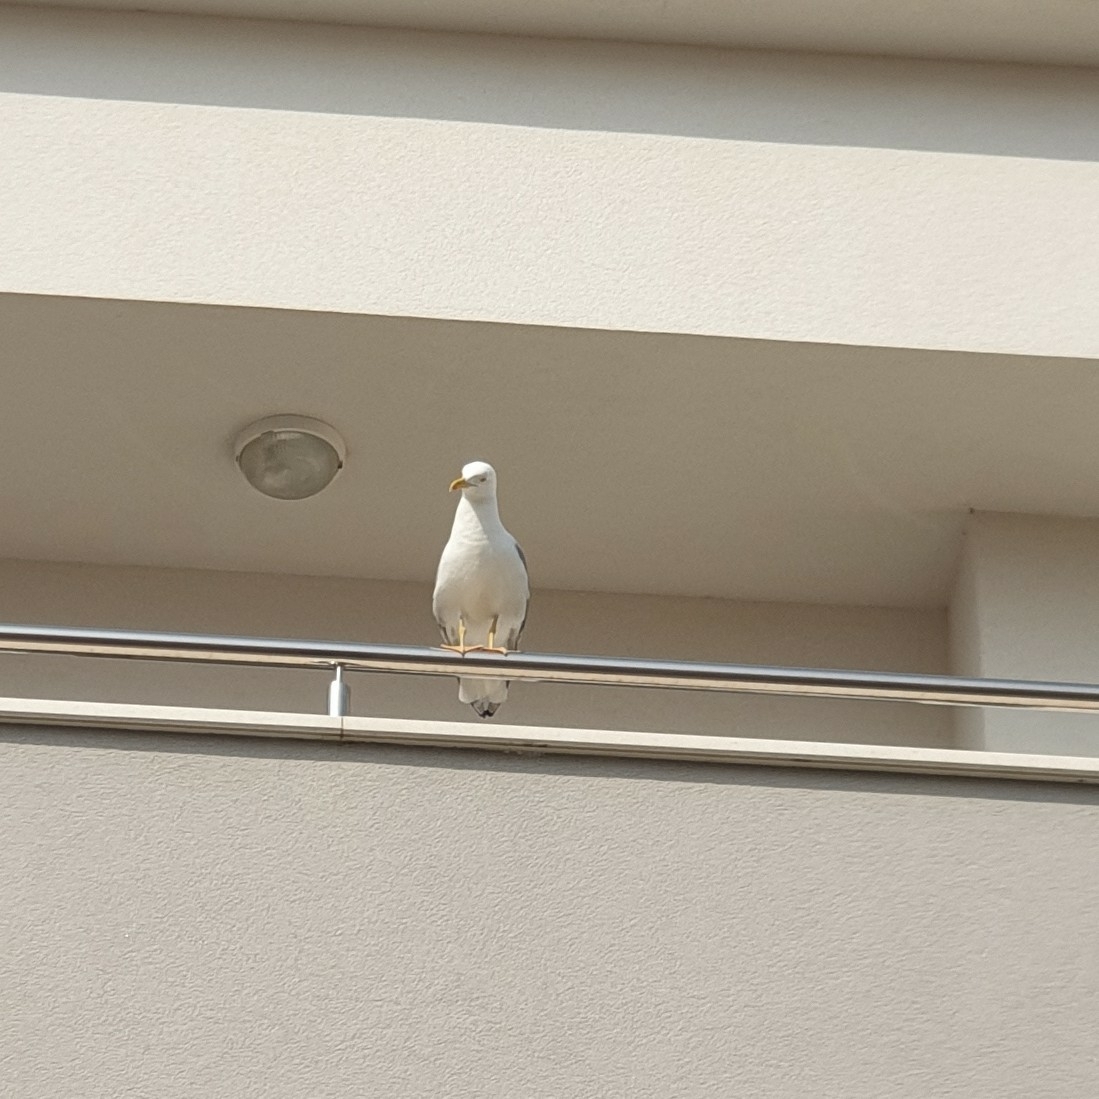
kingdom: Animalia
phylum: Chordata
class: Aves
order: Charadriiformes
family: Laridae
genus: Larus
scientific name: Larus michahellis
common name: Yellow-legged gull
